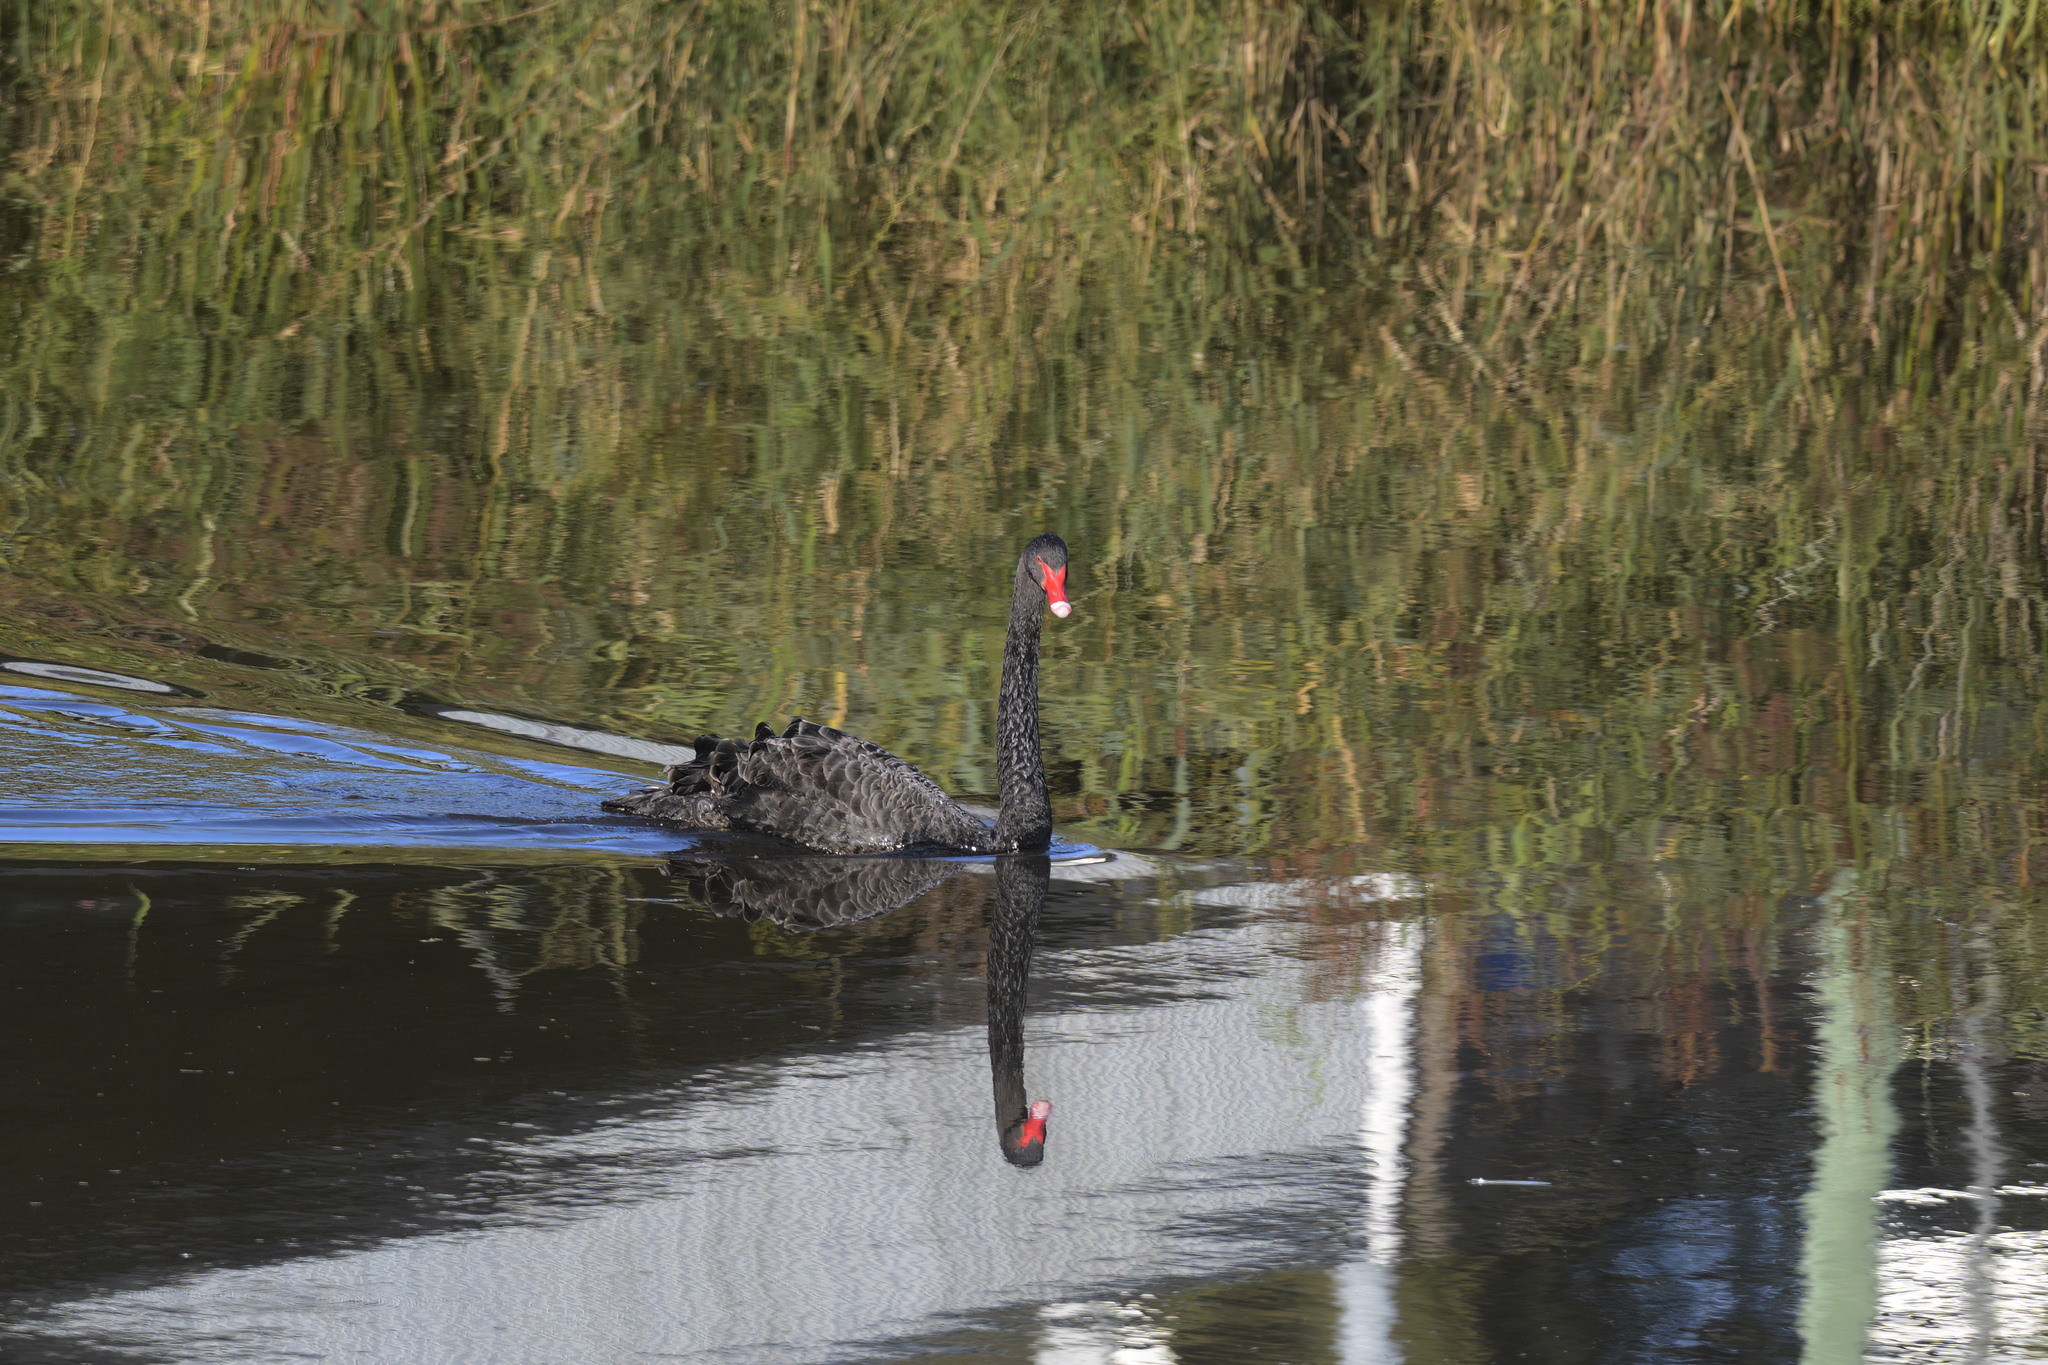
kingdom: Animalia
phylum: Chordata
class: Aves
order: Anseriformes
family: Anatidae
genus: Cygnus
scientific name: Cygnus atratus
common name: Black swan
